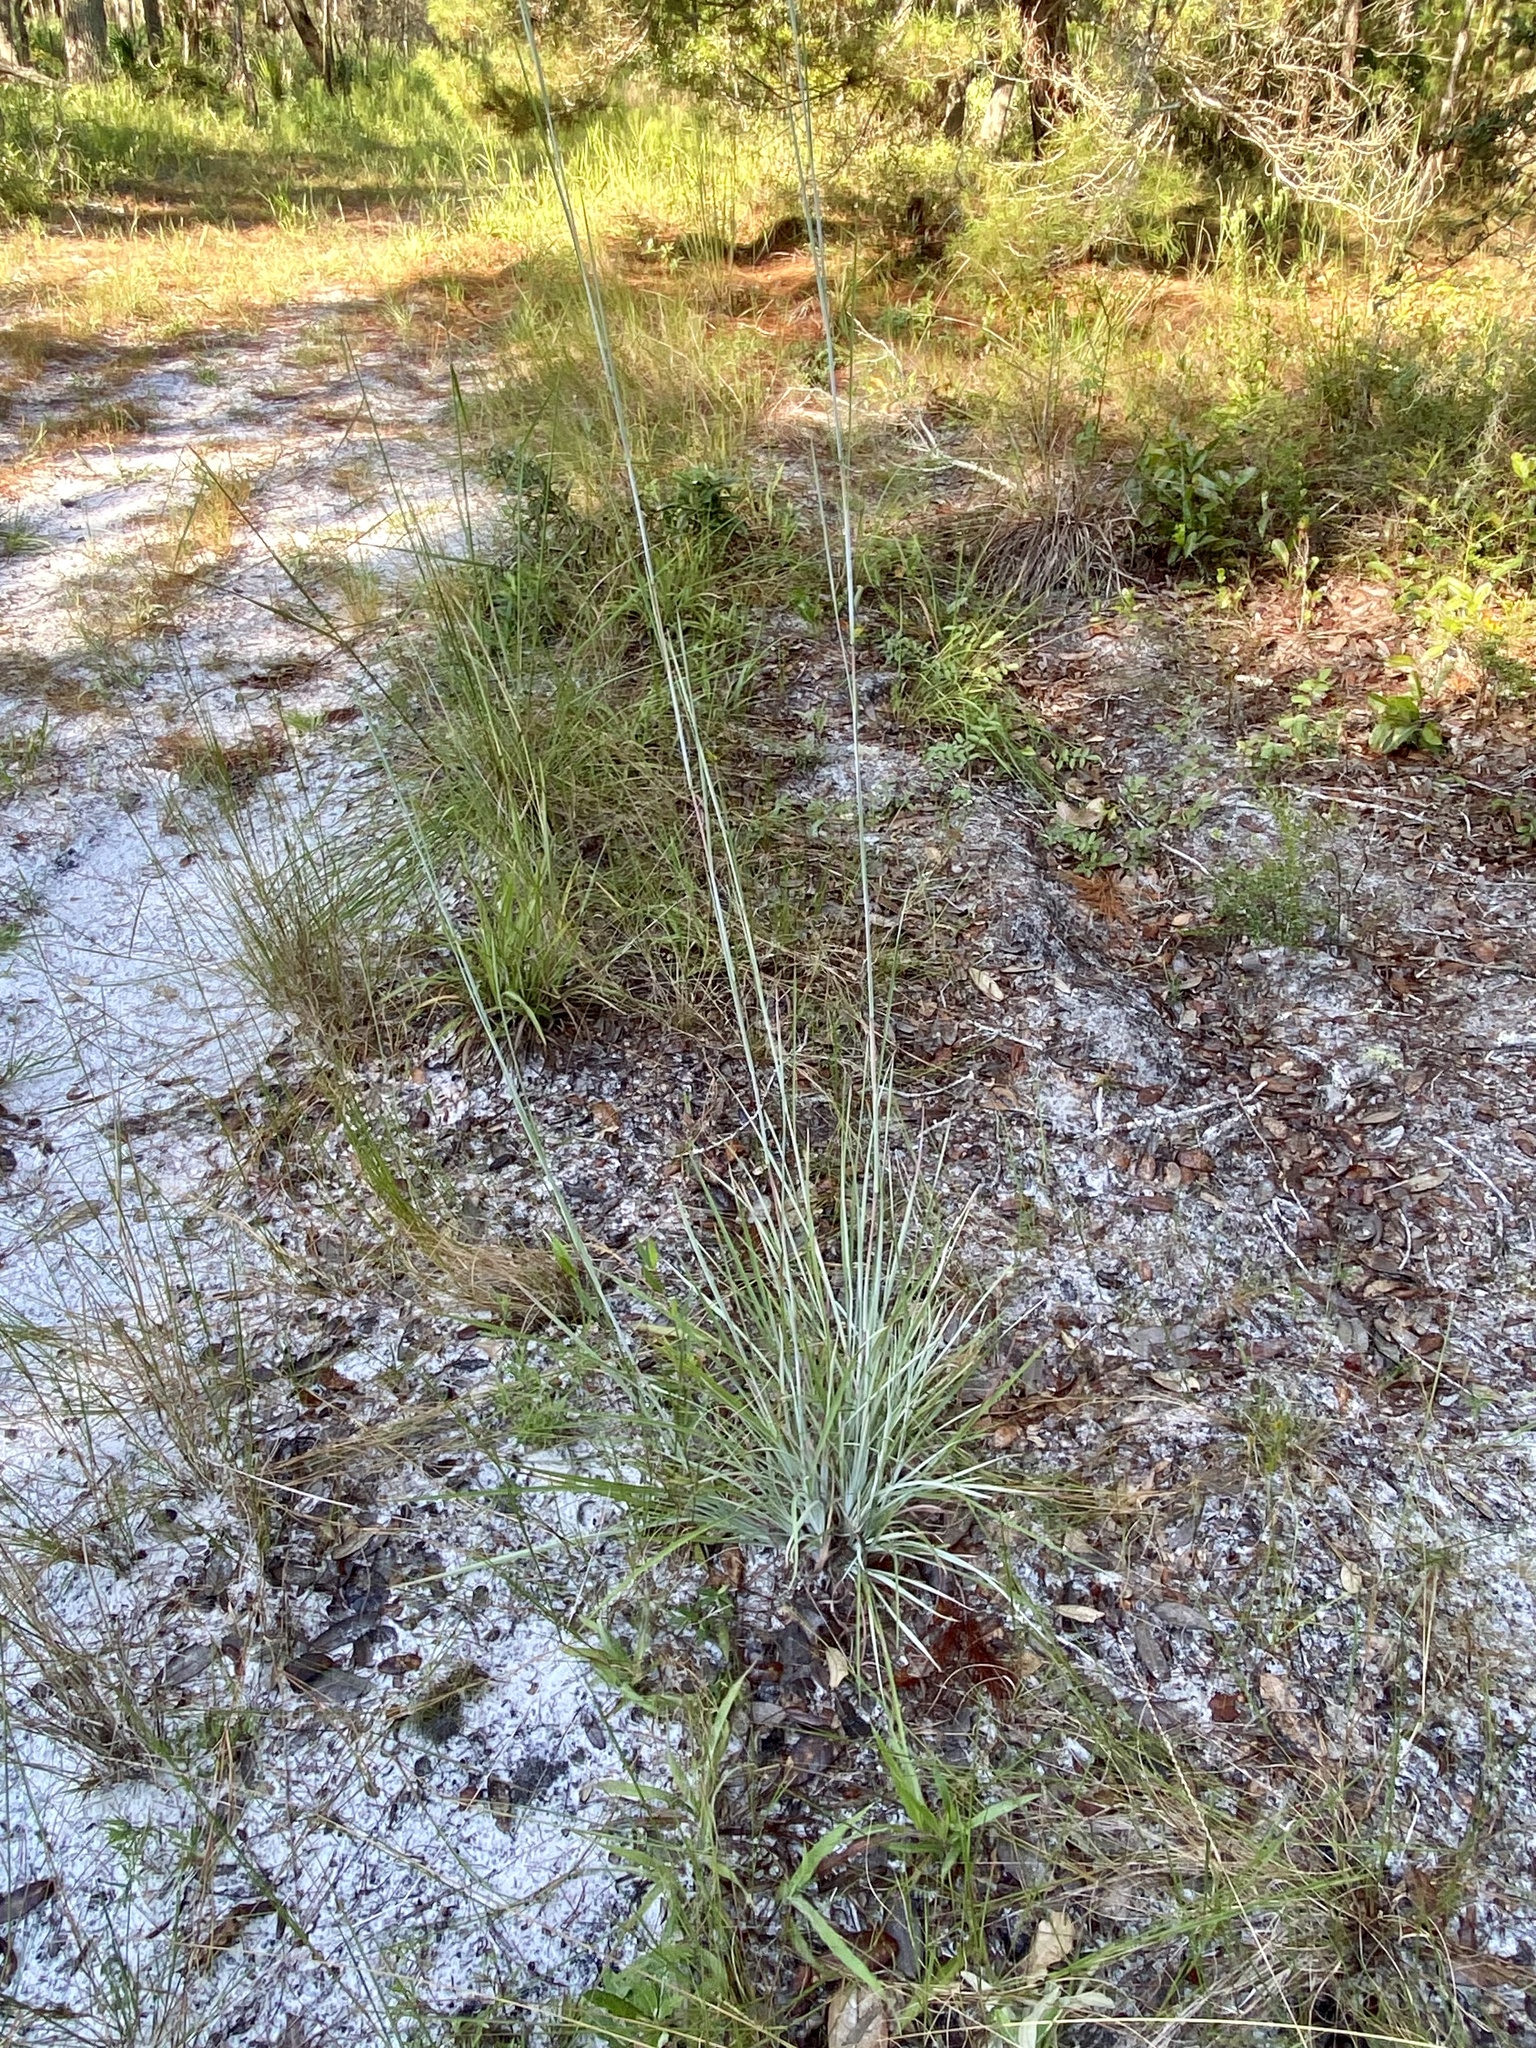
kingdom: Plantae
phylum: Tracheophyta
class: Liliopsida
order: Poales
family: Poaceae
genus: Andropogon
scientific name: Andropogon capillipes
